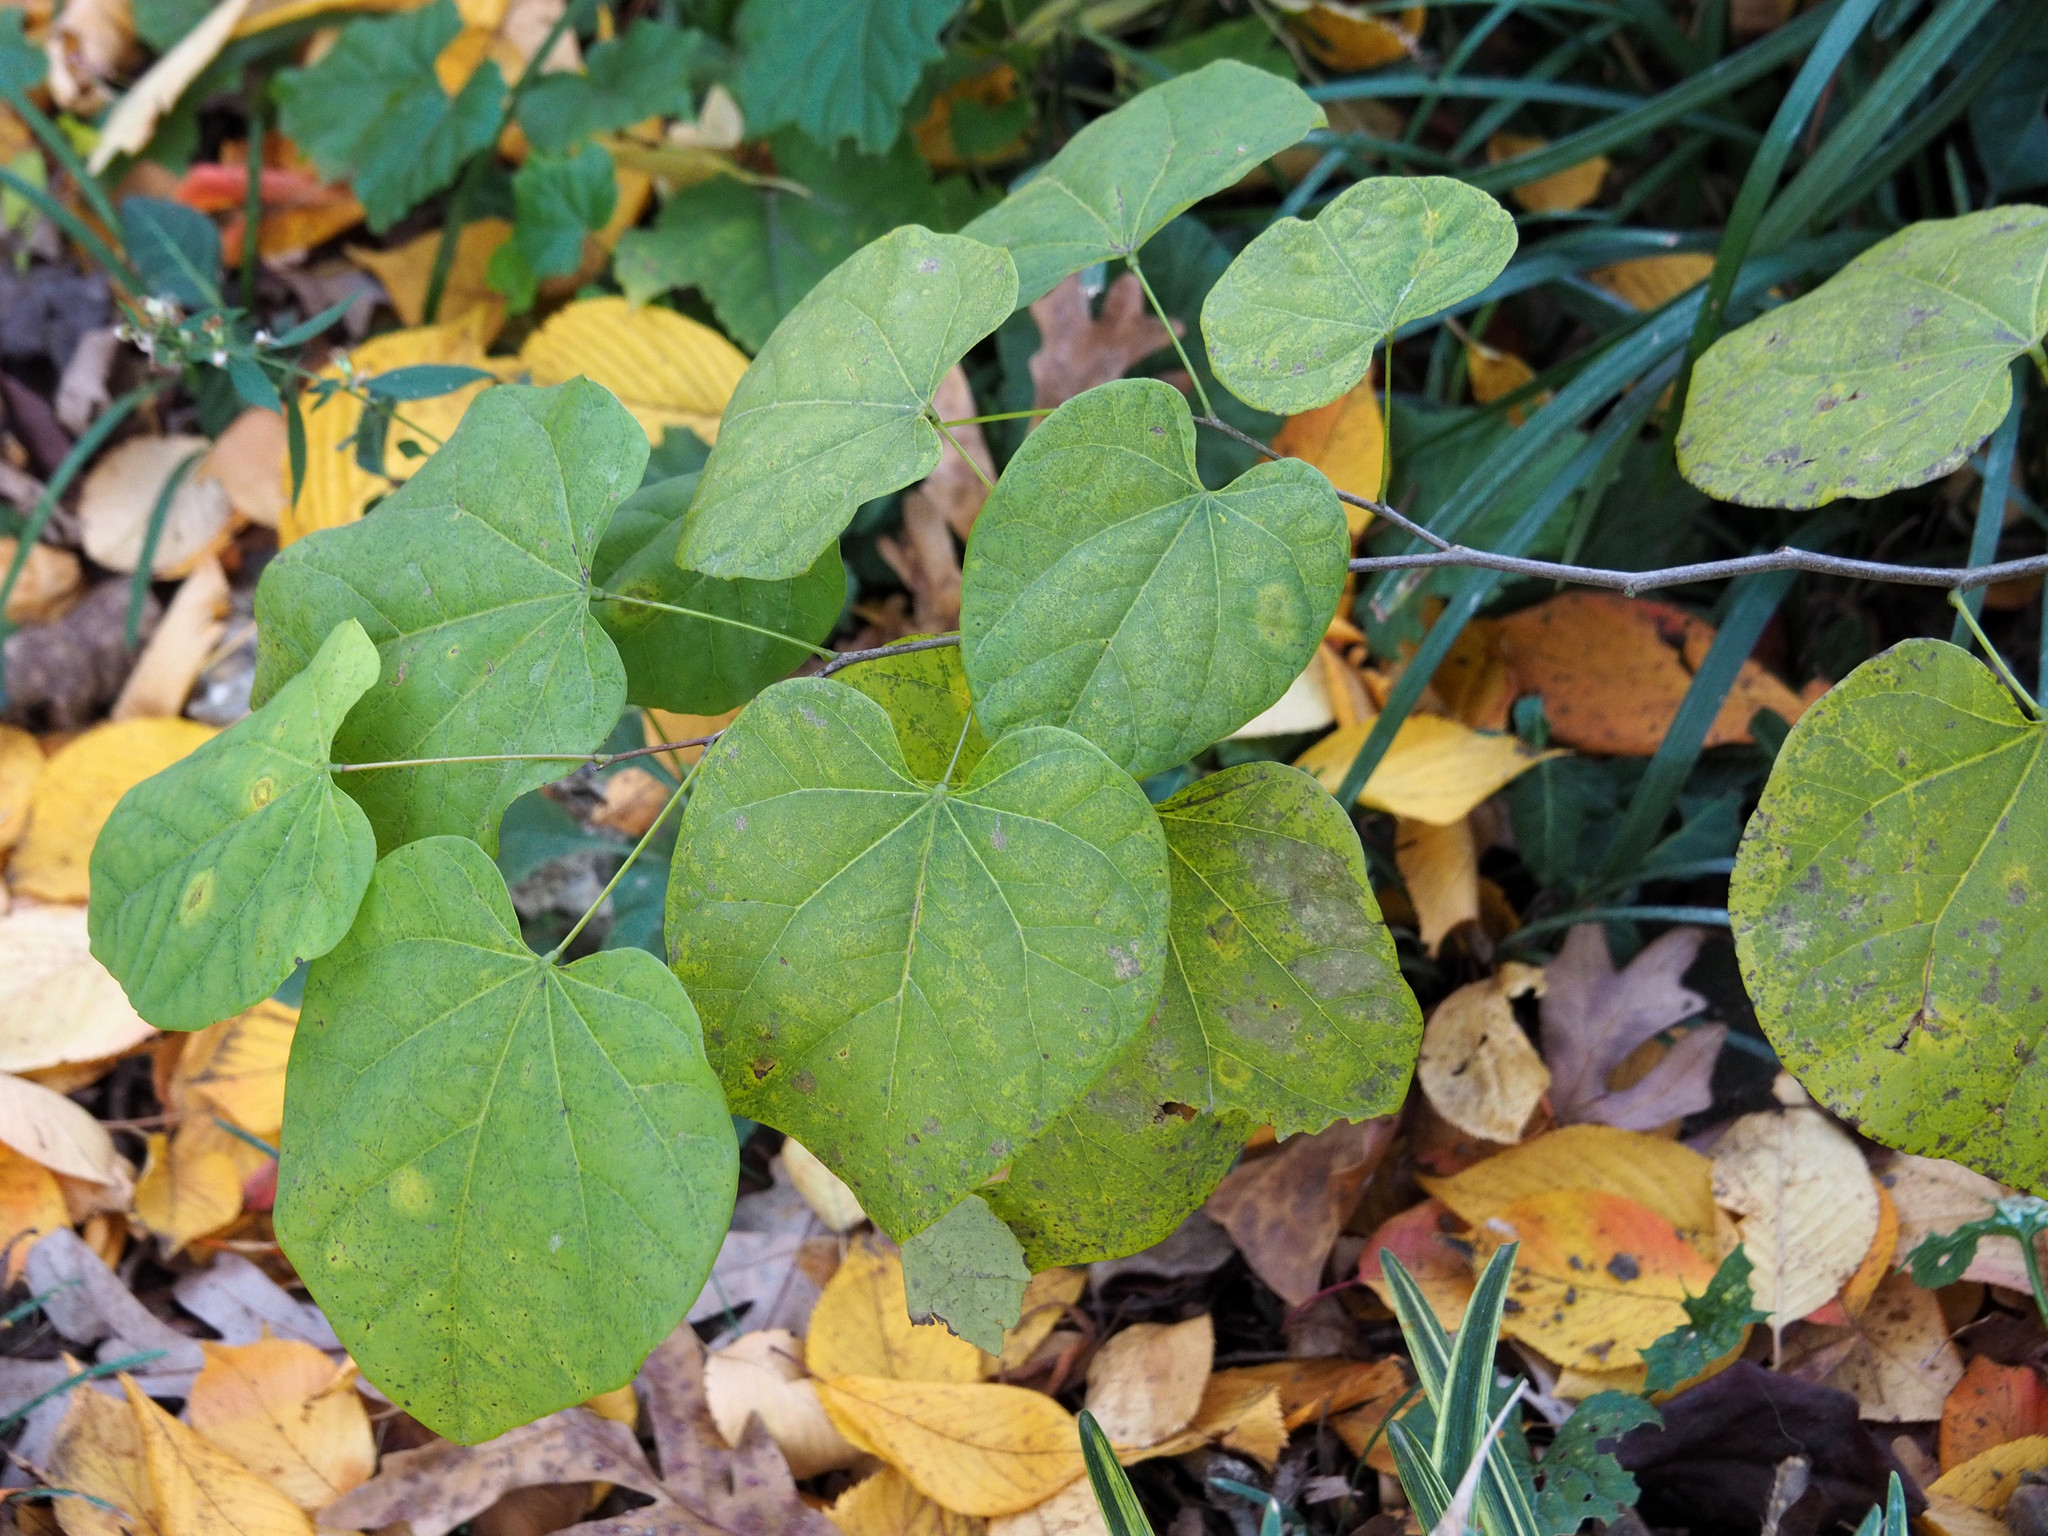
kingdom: Plantae
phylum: Tracheophyta
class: Magnoliopsida
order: Fabales
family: Fabaceae
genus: Cercis
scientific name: Cercis canadensis
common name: Eastern redbud
